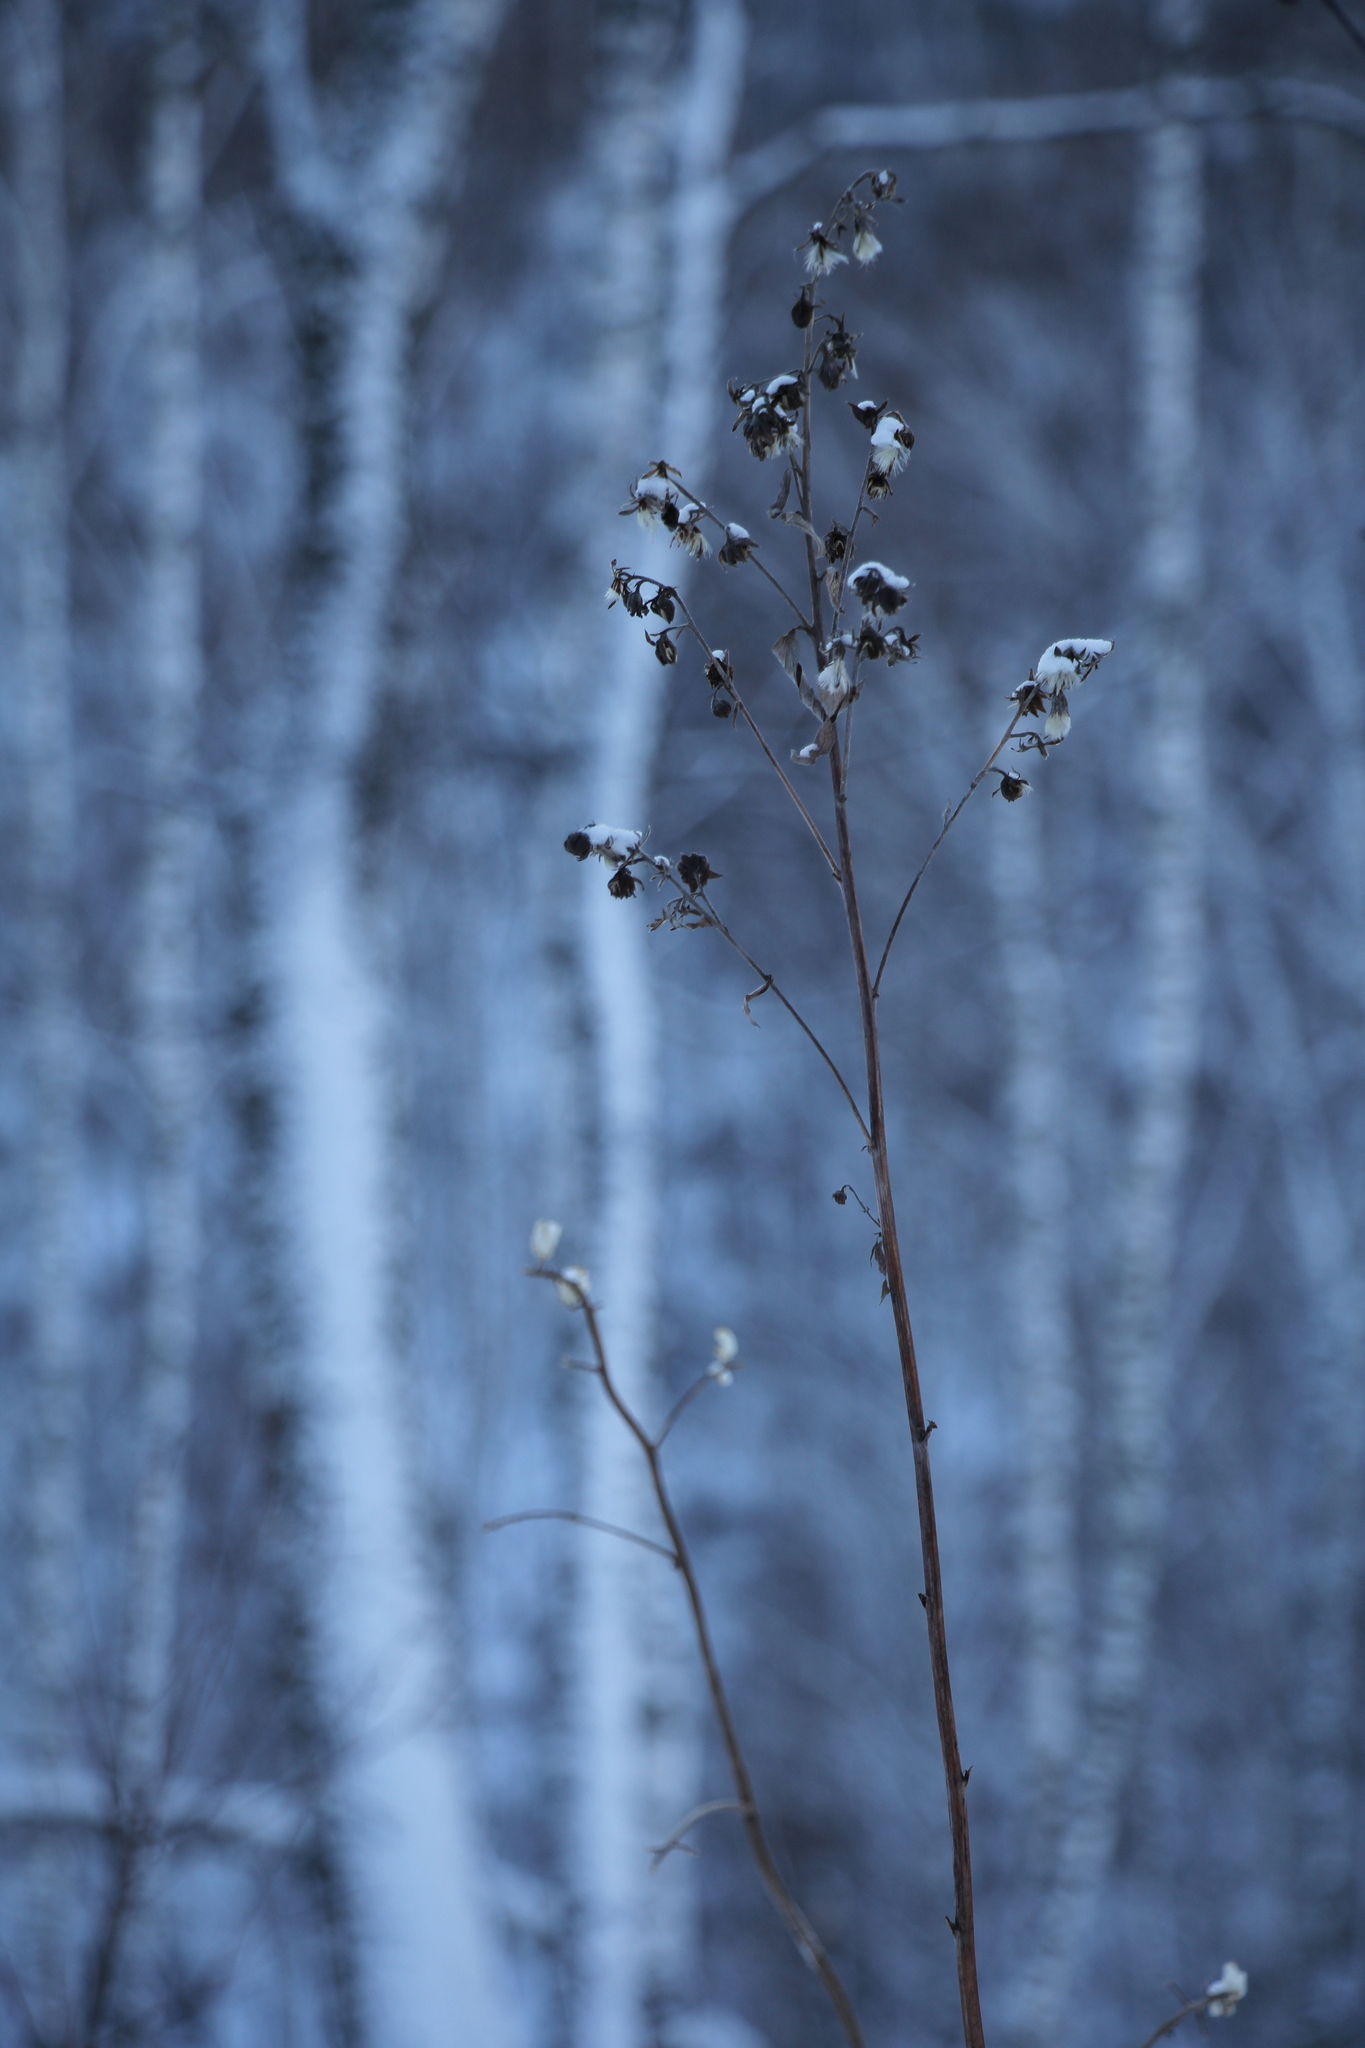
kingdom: Plantae
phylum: Tracheophyta
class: Magnoliopsida
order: Asterales
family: Asteraceae
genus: Parasenecio
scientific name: Parasenecio hastatus
